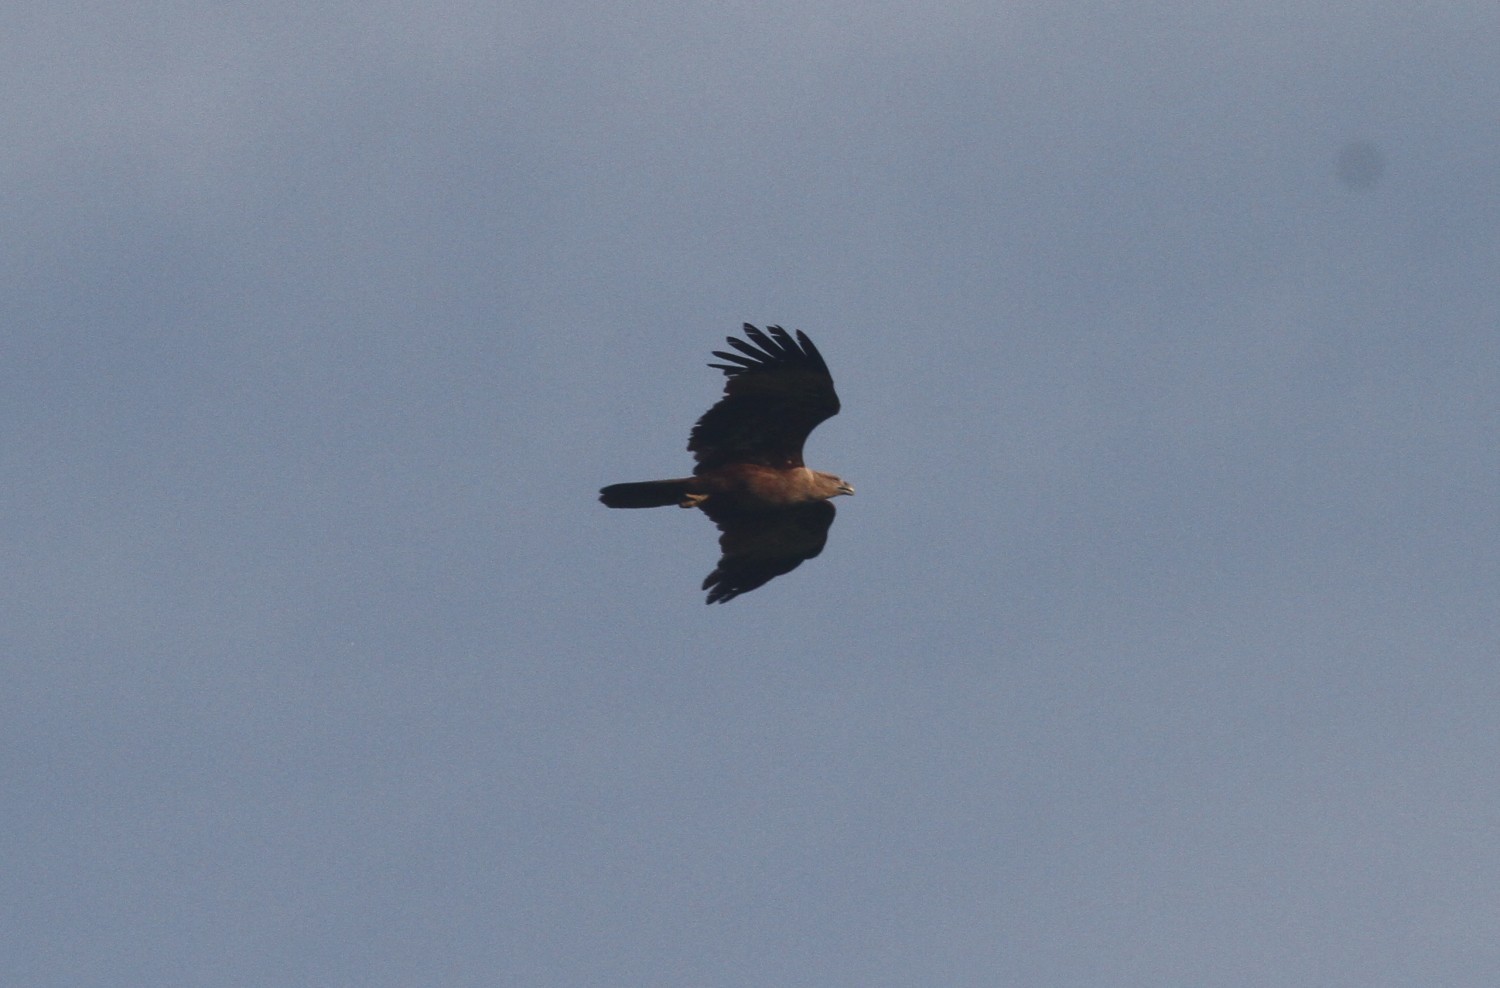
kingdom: Animalia
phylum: Chordata
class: Aves
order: Accipitriformes
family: Accipitridae
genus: Haliastur
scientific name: Haliastur indus
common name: Brahminy kite
